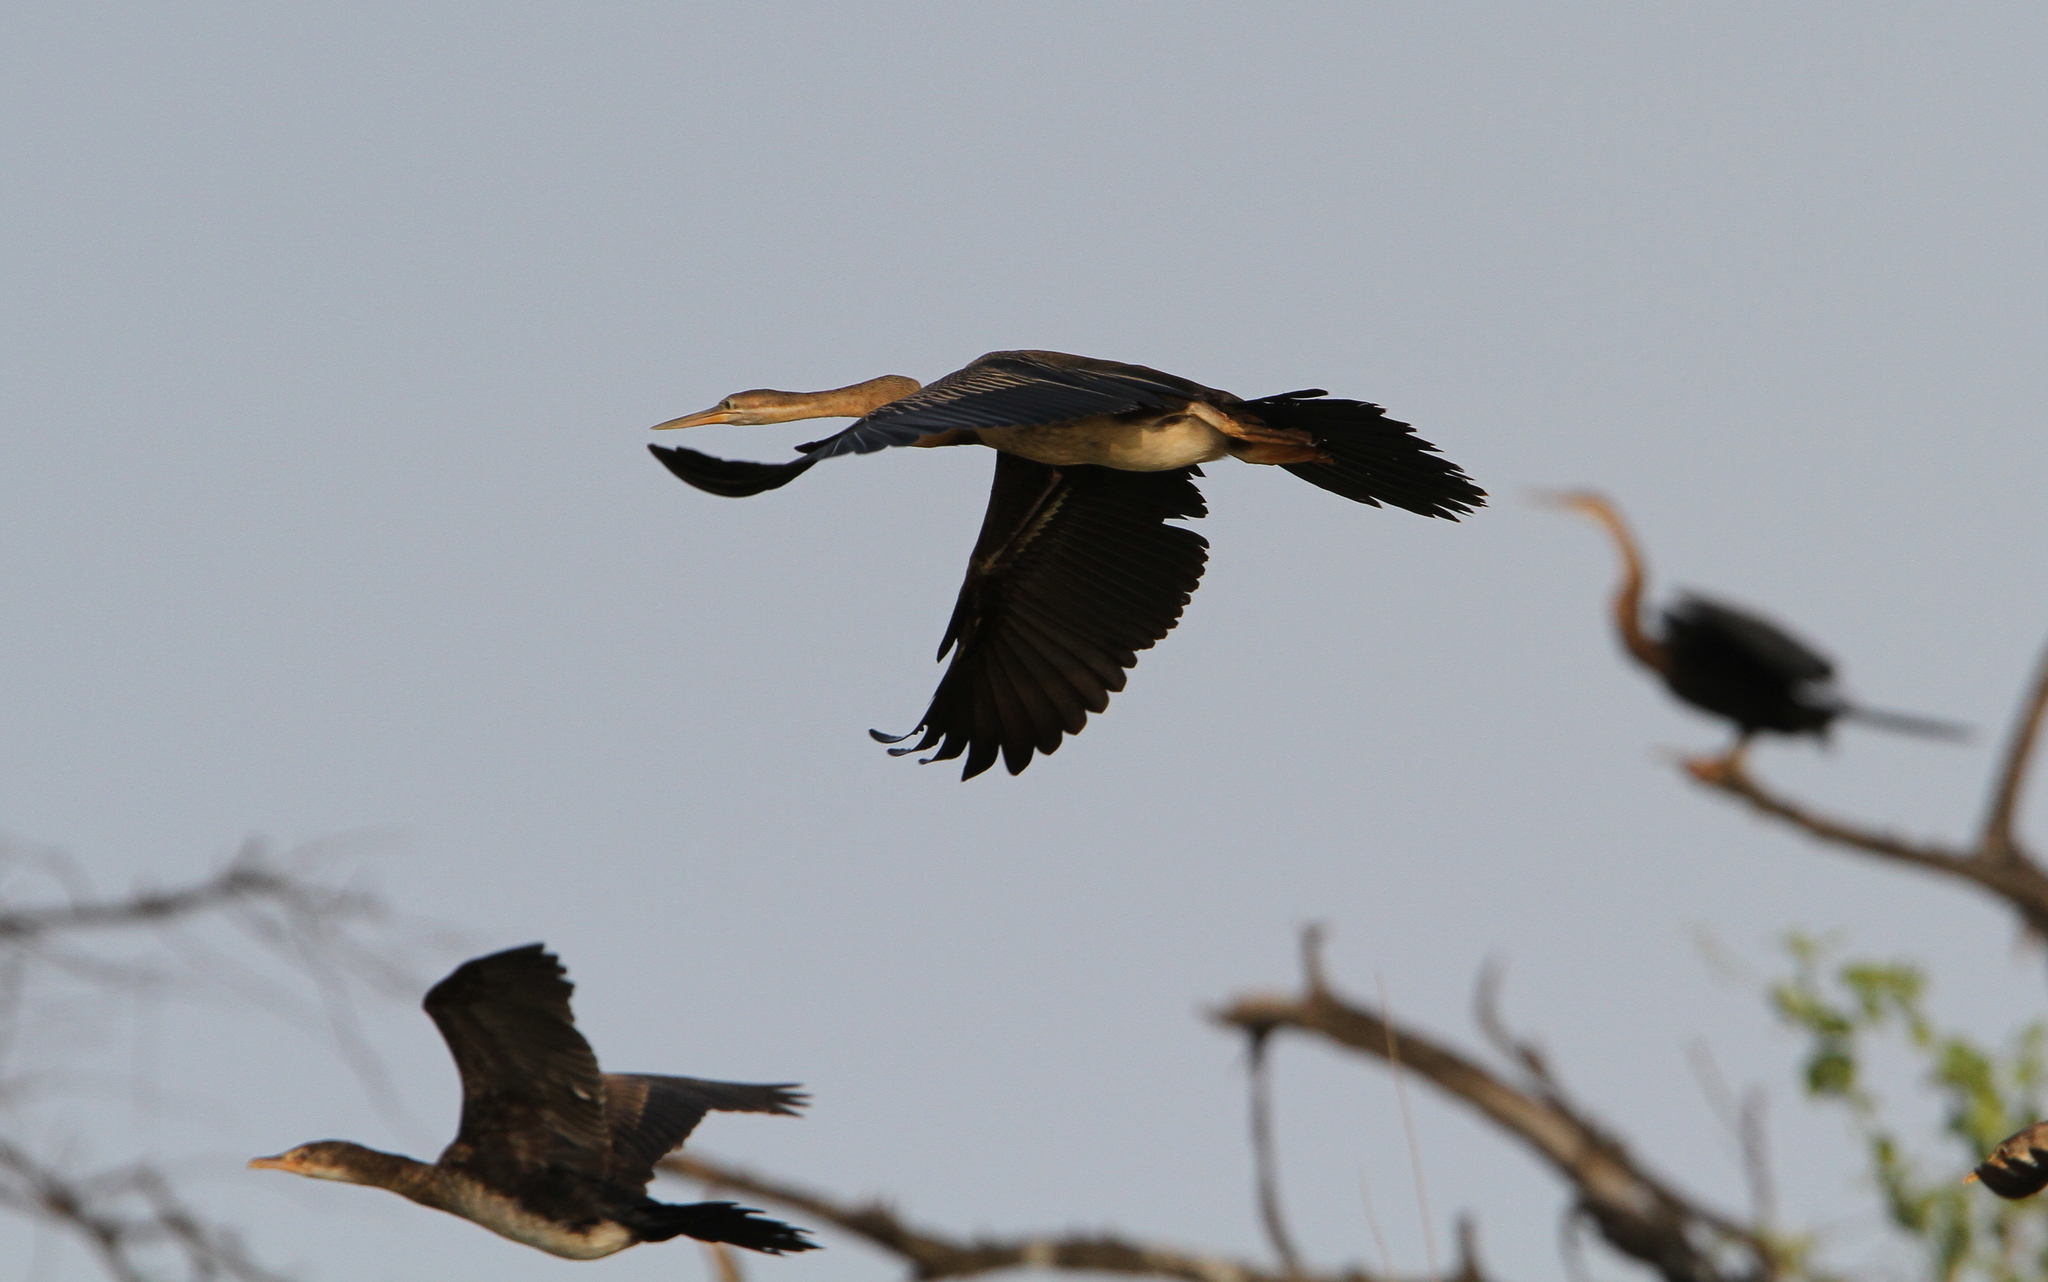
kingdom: Animalia
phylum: Chordata
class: Aves
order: Suliformes
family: Anhingidae
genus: Anhinga
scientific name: Anhinga rufa
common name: African darter
